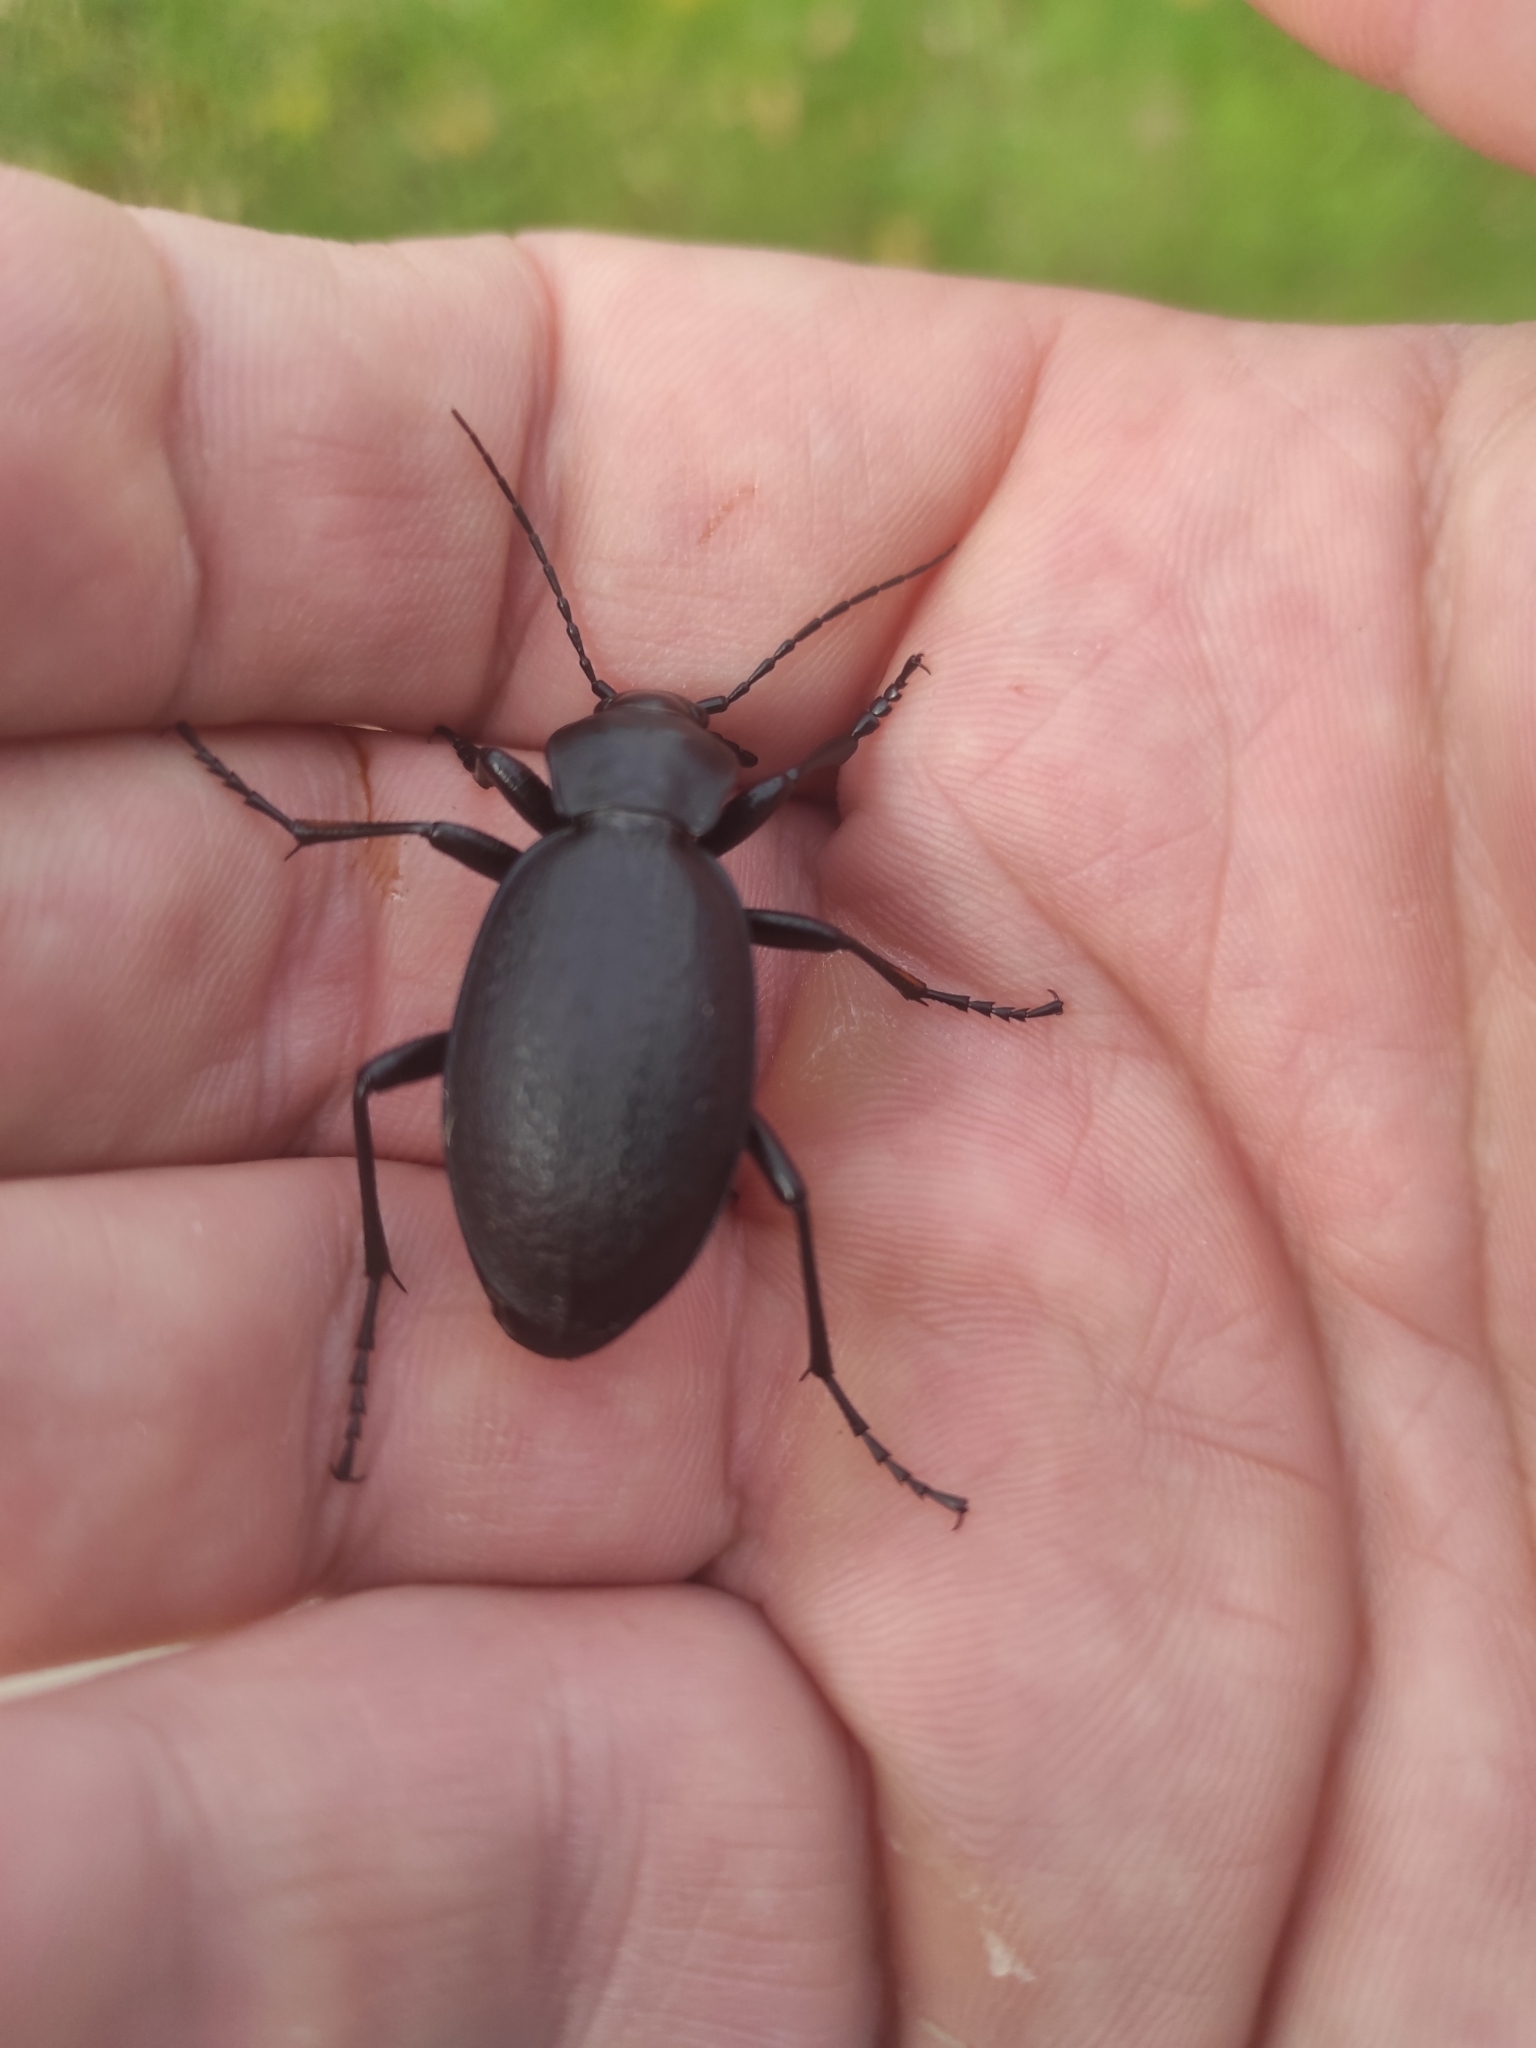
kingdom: Animalia
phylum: Arthropoda
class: Insecta
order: Coleoptera
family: Carabidae
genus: Carabus
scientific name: Carabus coriaceus
